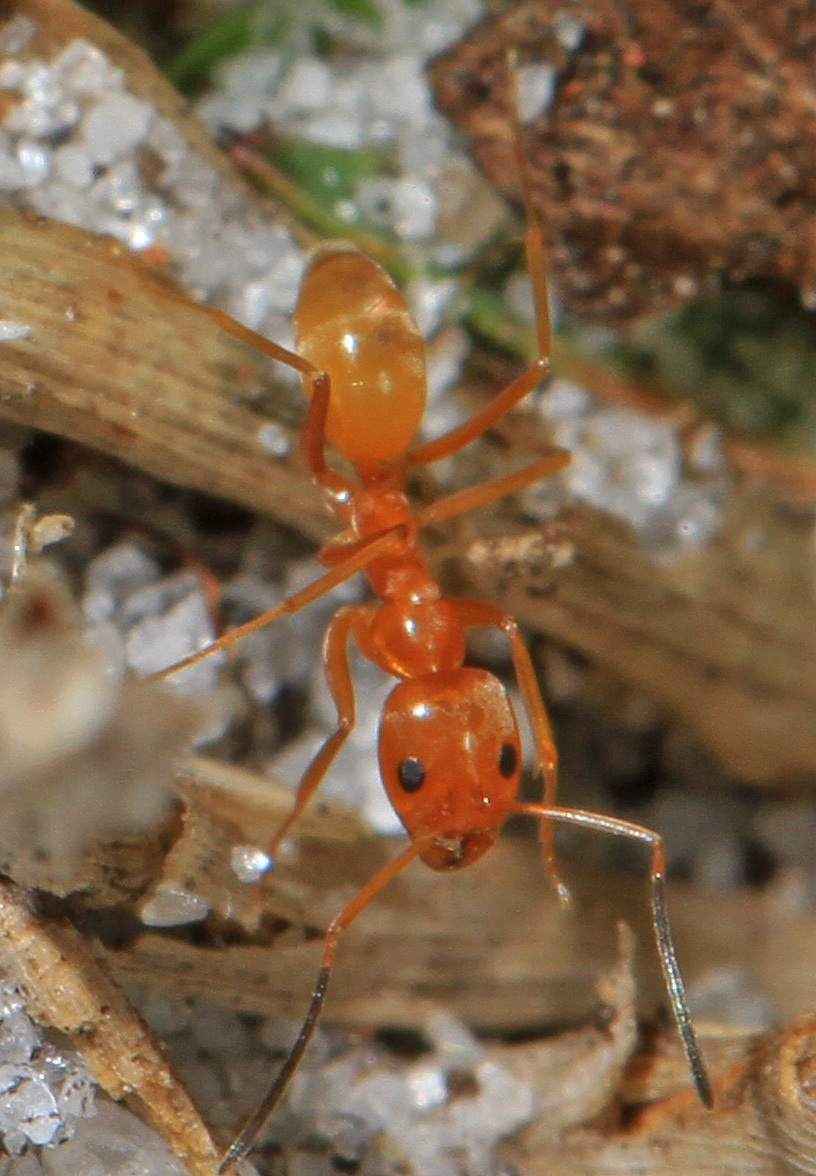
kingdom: Animalia
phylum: Arthropoda
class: Insecta
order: Hymenoptera
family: Formicidae
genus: Dorymyrmex
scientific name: Dorymyrmex bureni
